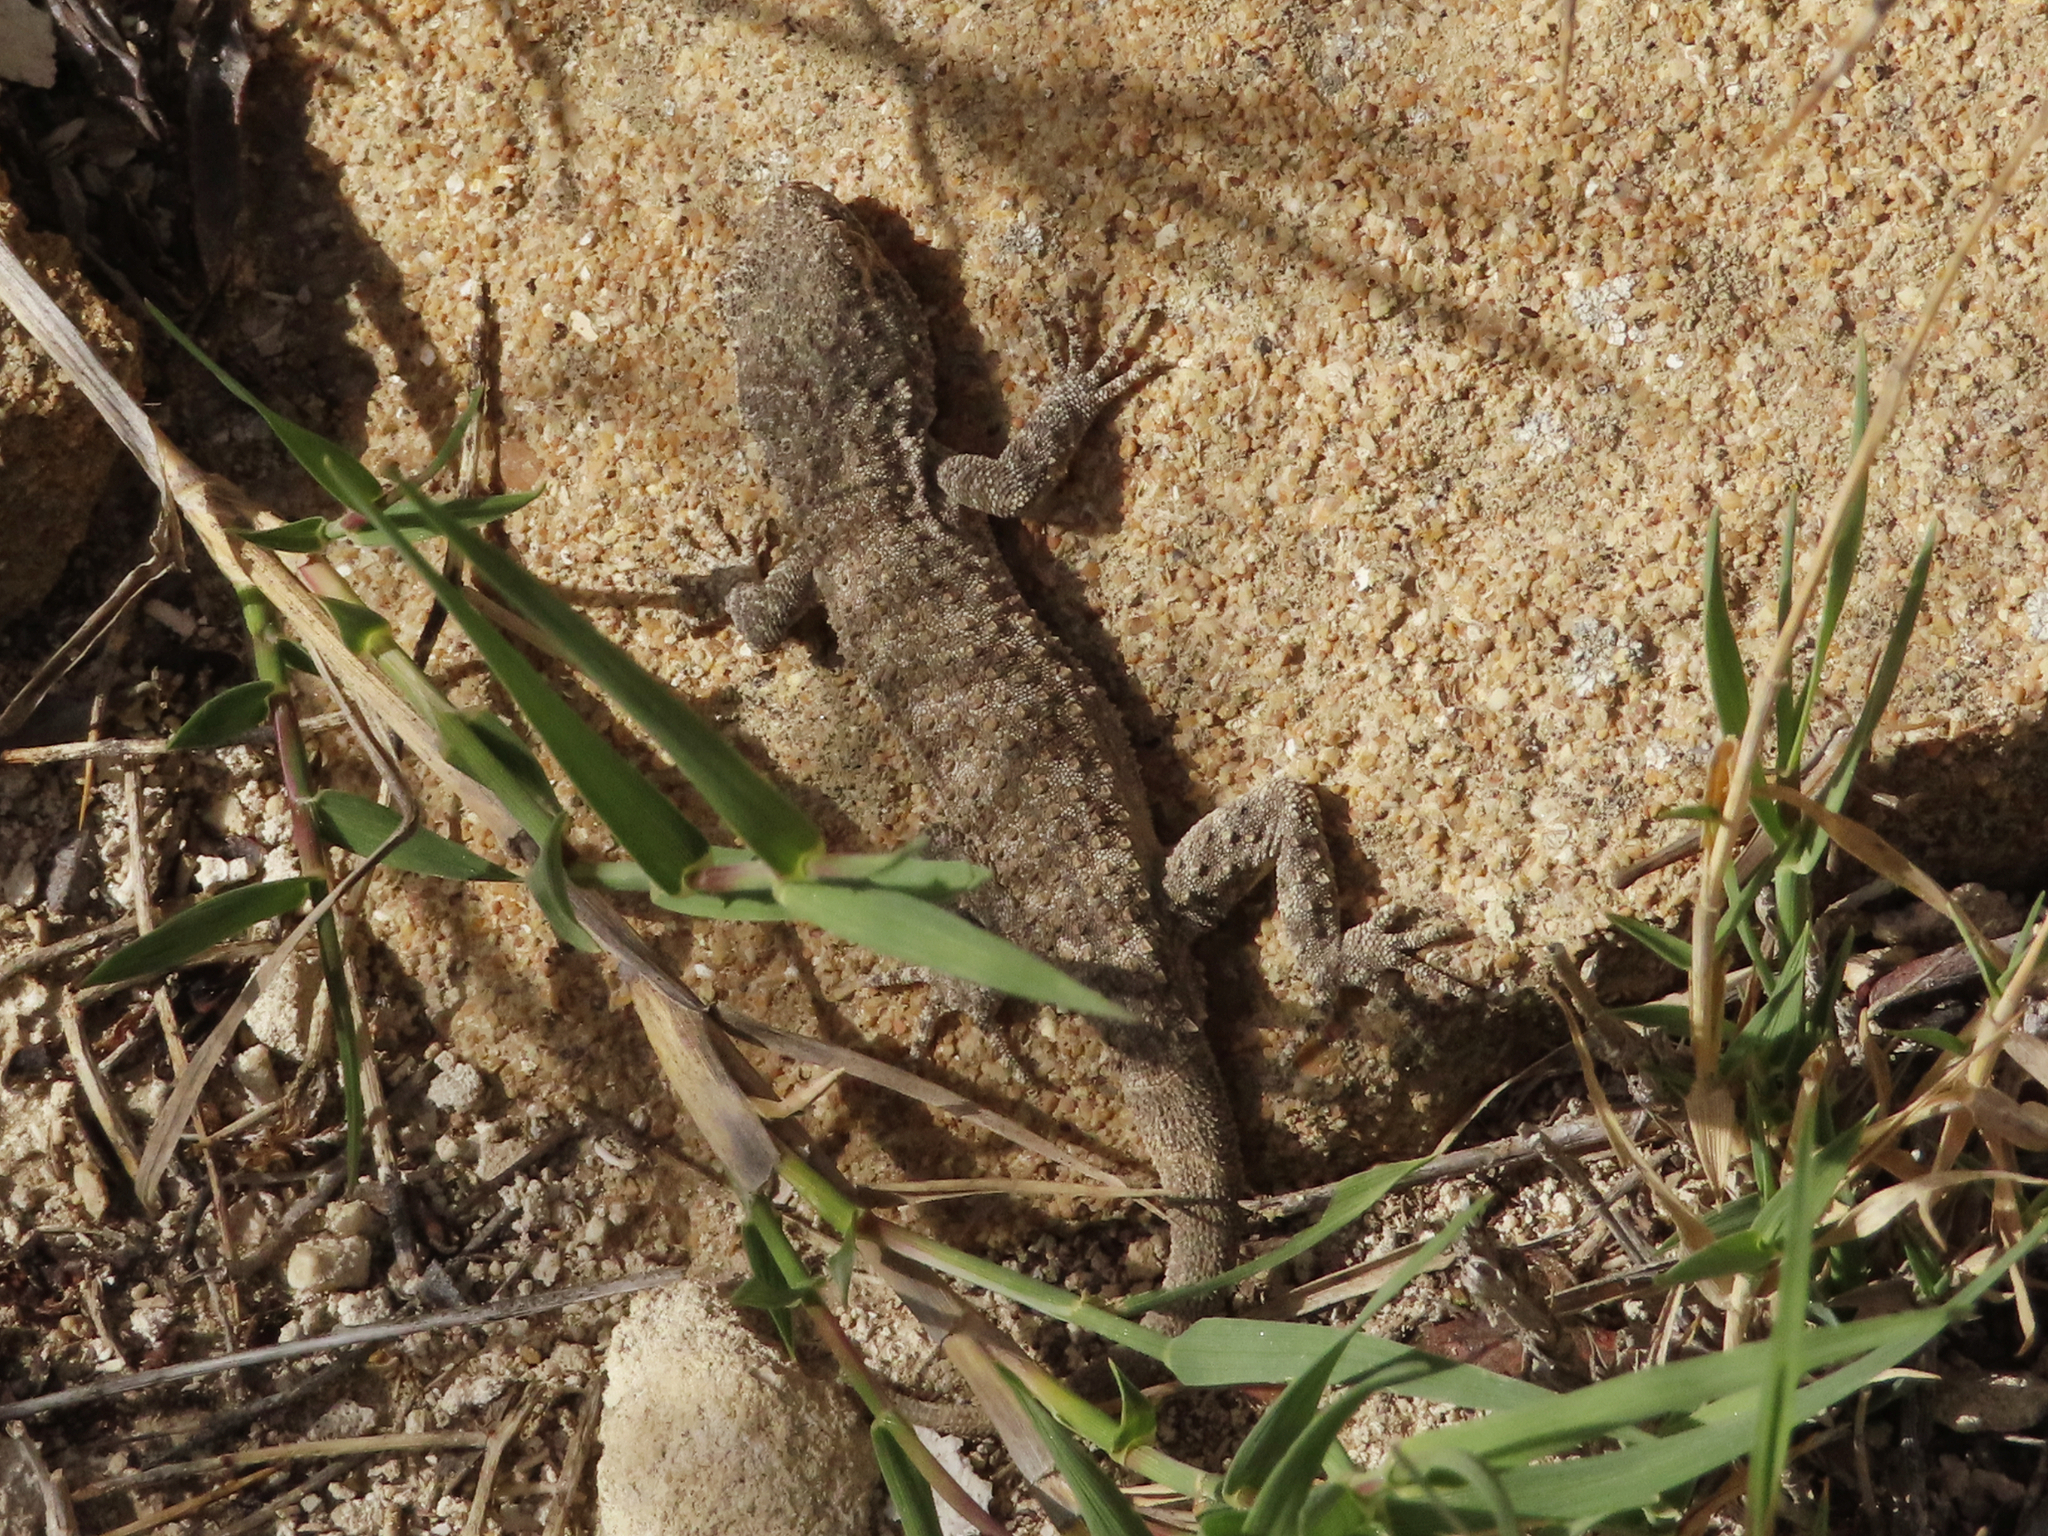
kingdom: Animalia
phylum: Chordata
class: Squamata
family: Gekkonidae
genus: Mediodactylus
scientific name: Mediodactylus russowii
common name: Grey thin-toed gecko
